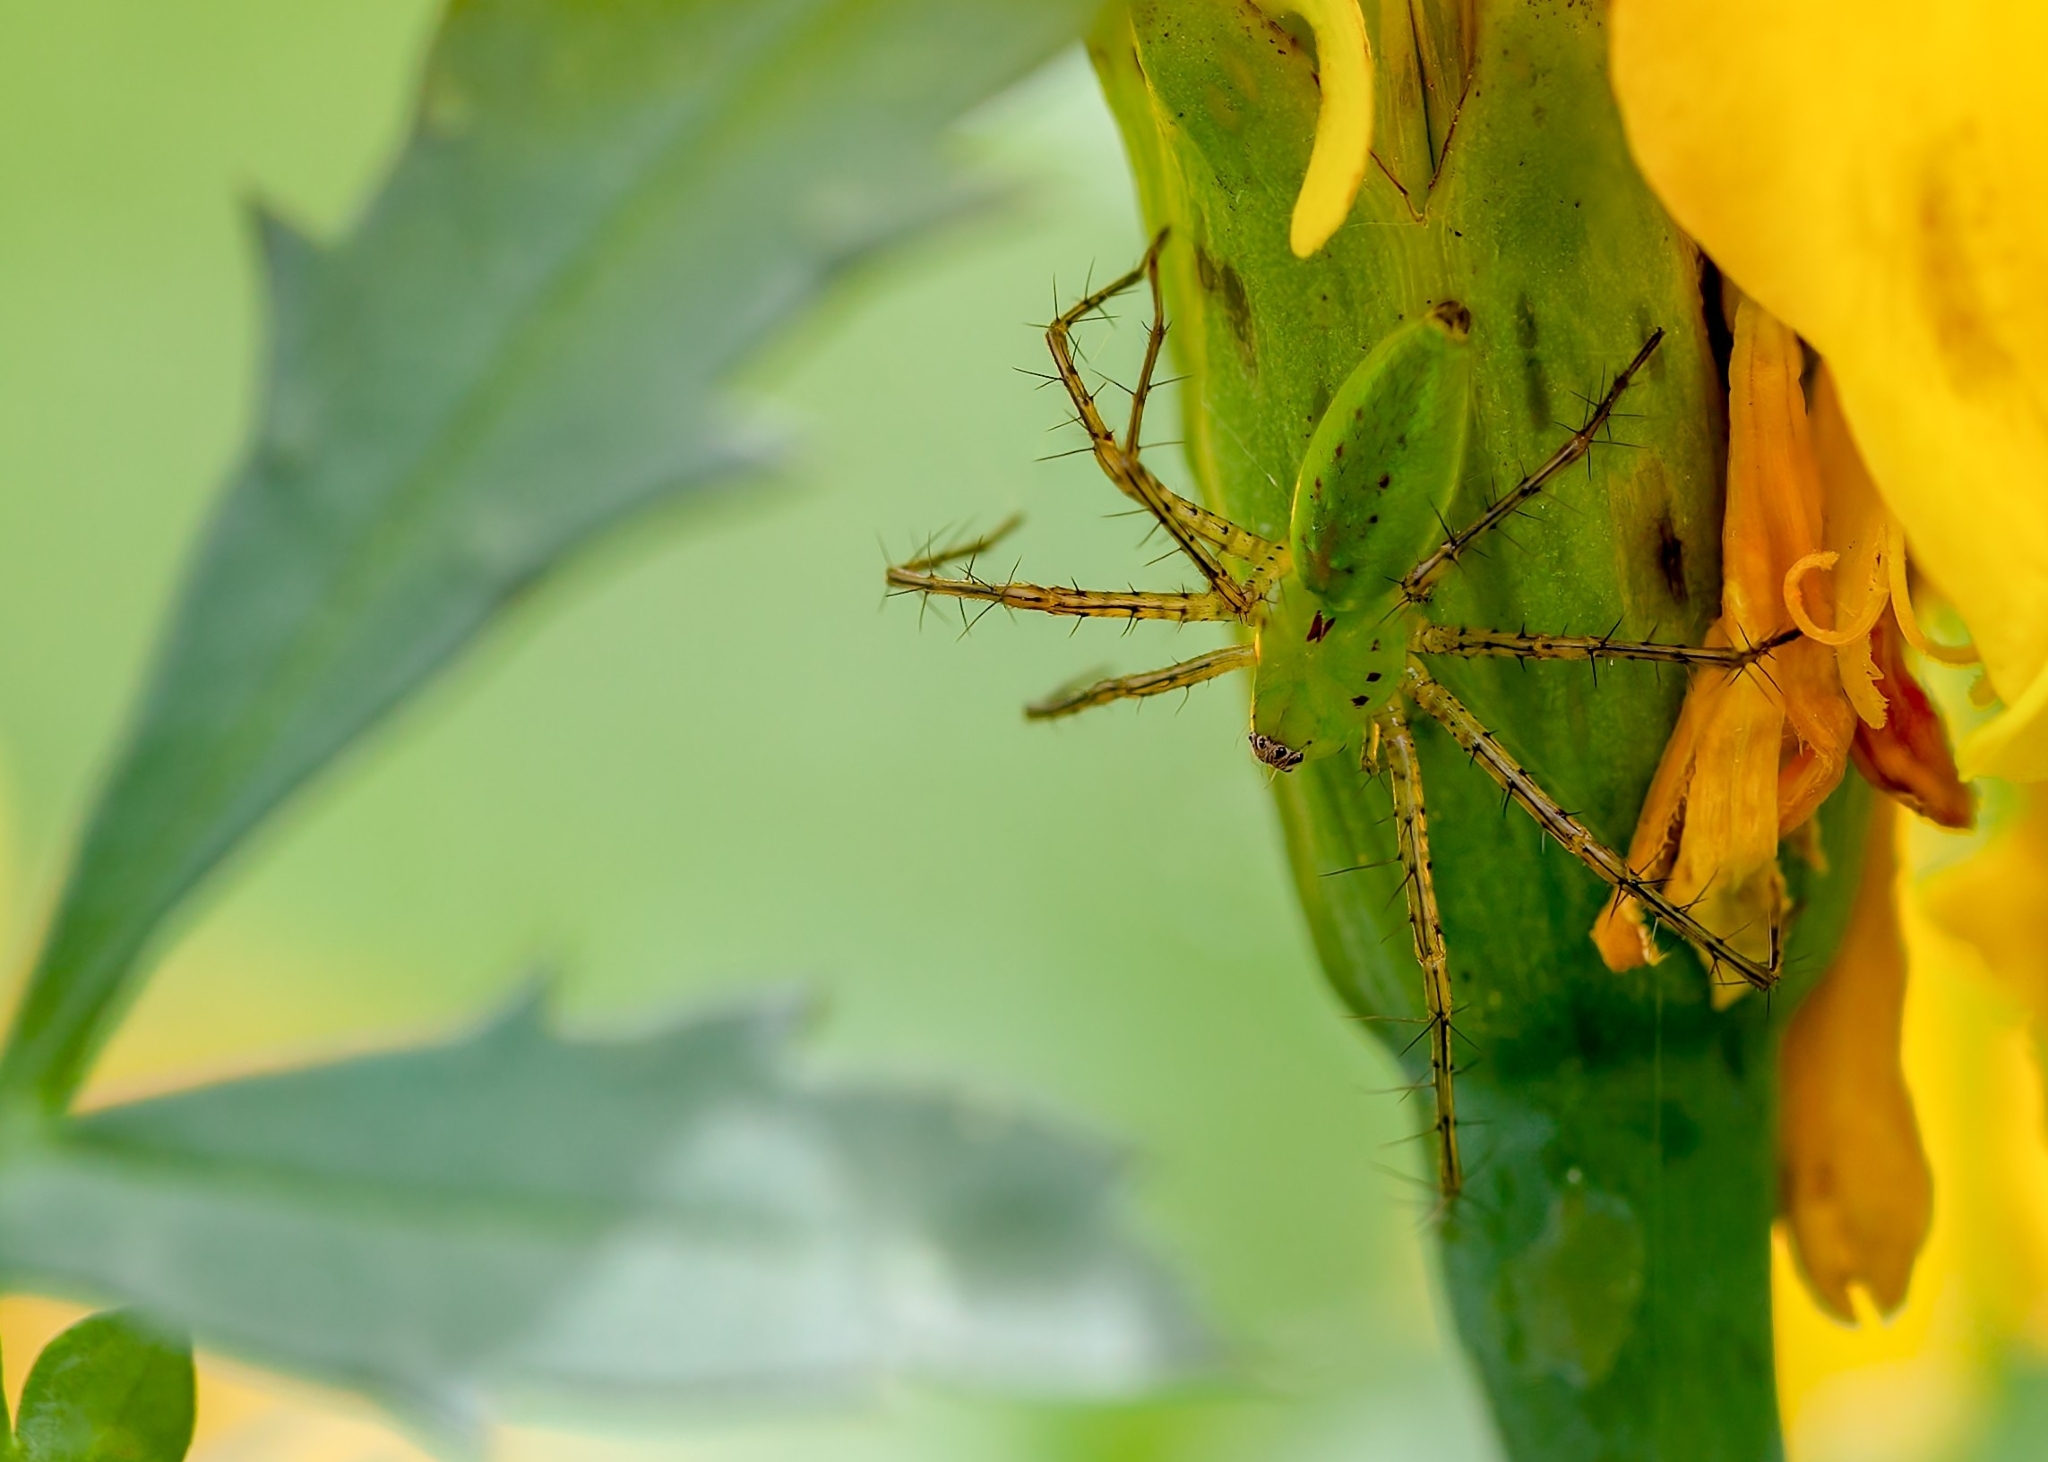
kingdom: Animalia
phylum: Arthropoda
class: Arachnida
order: Araneae
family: Oxyopidae
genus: Peucetia
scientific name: Peucetia viridans
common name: Lynx spiders
